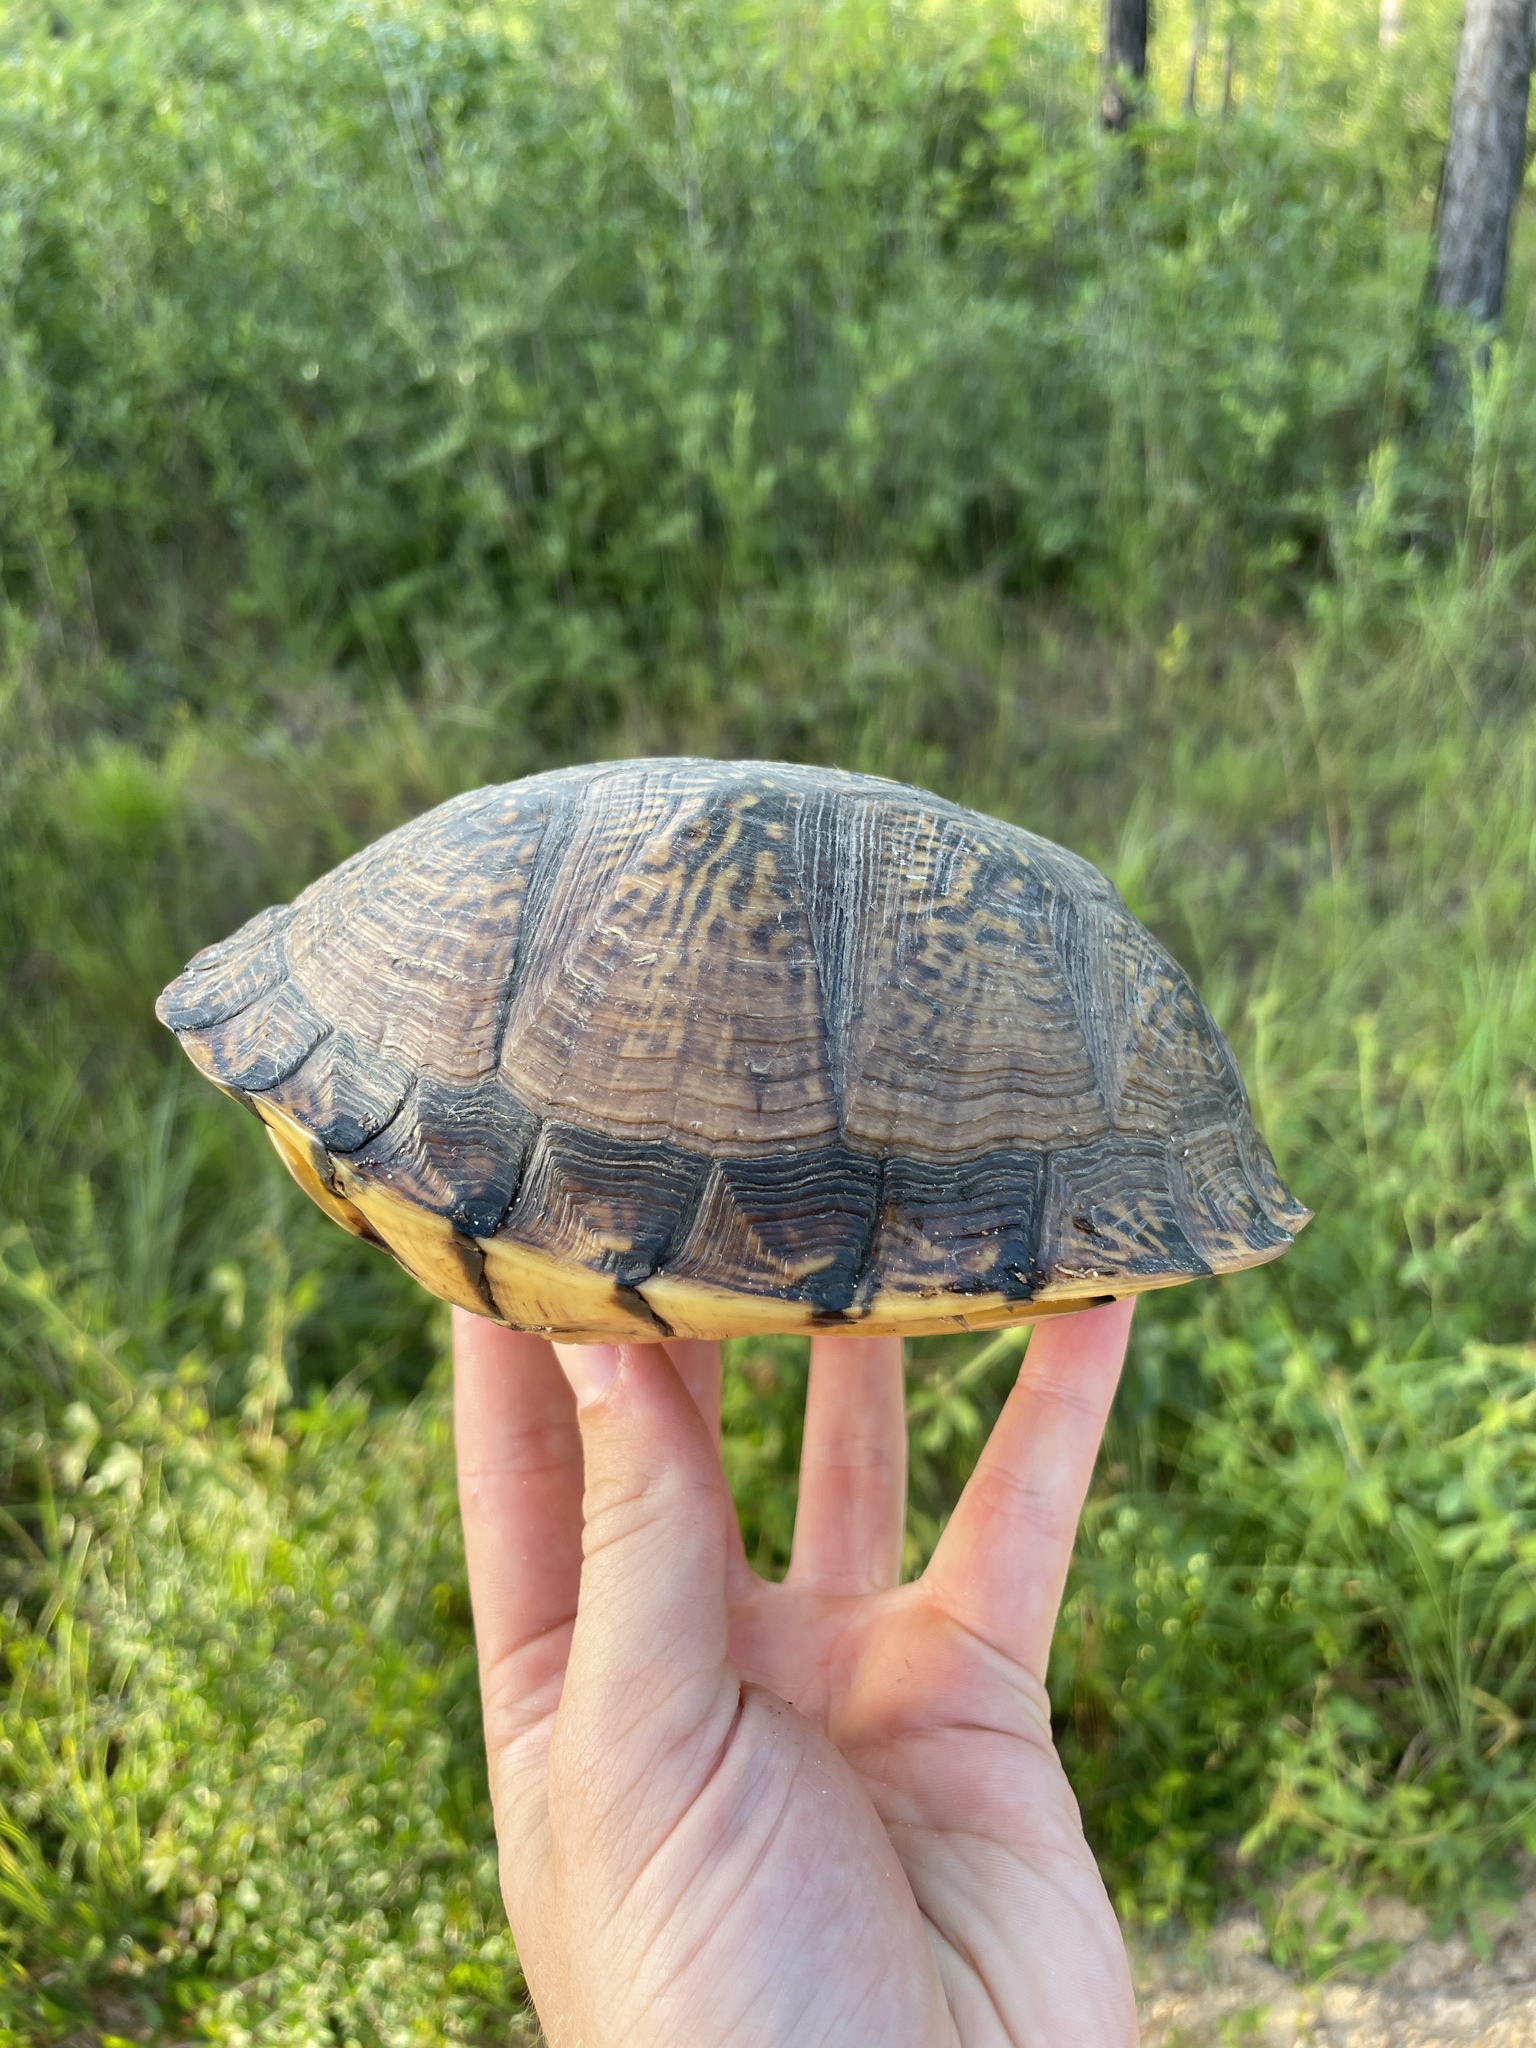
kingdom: Animalia
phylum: Chordata
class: Testudines
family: Emydidae
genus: Terrapene
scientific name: Terrapene carolina
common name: Common box turtle
